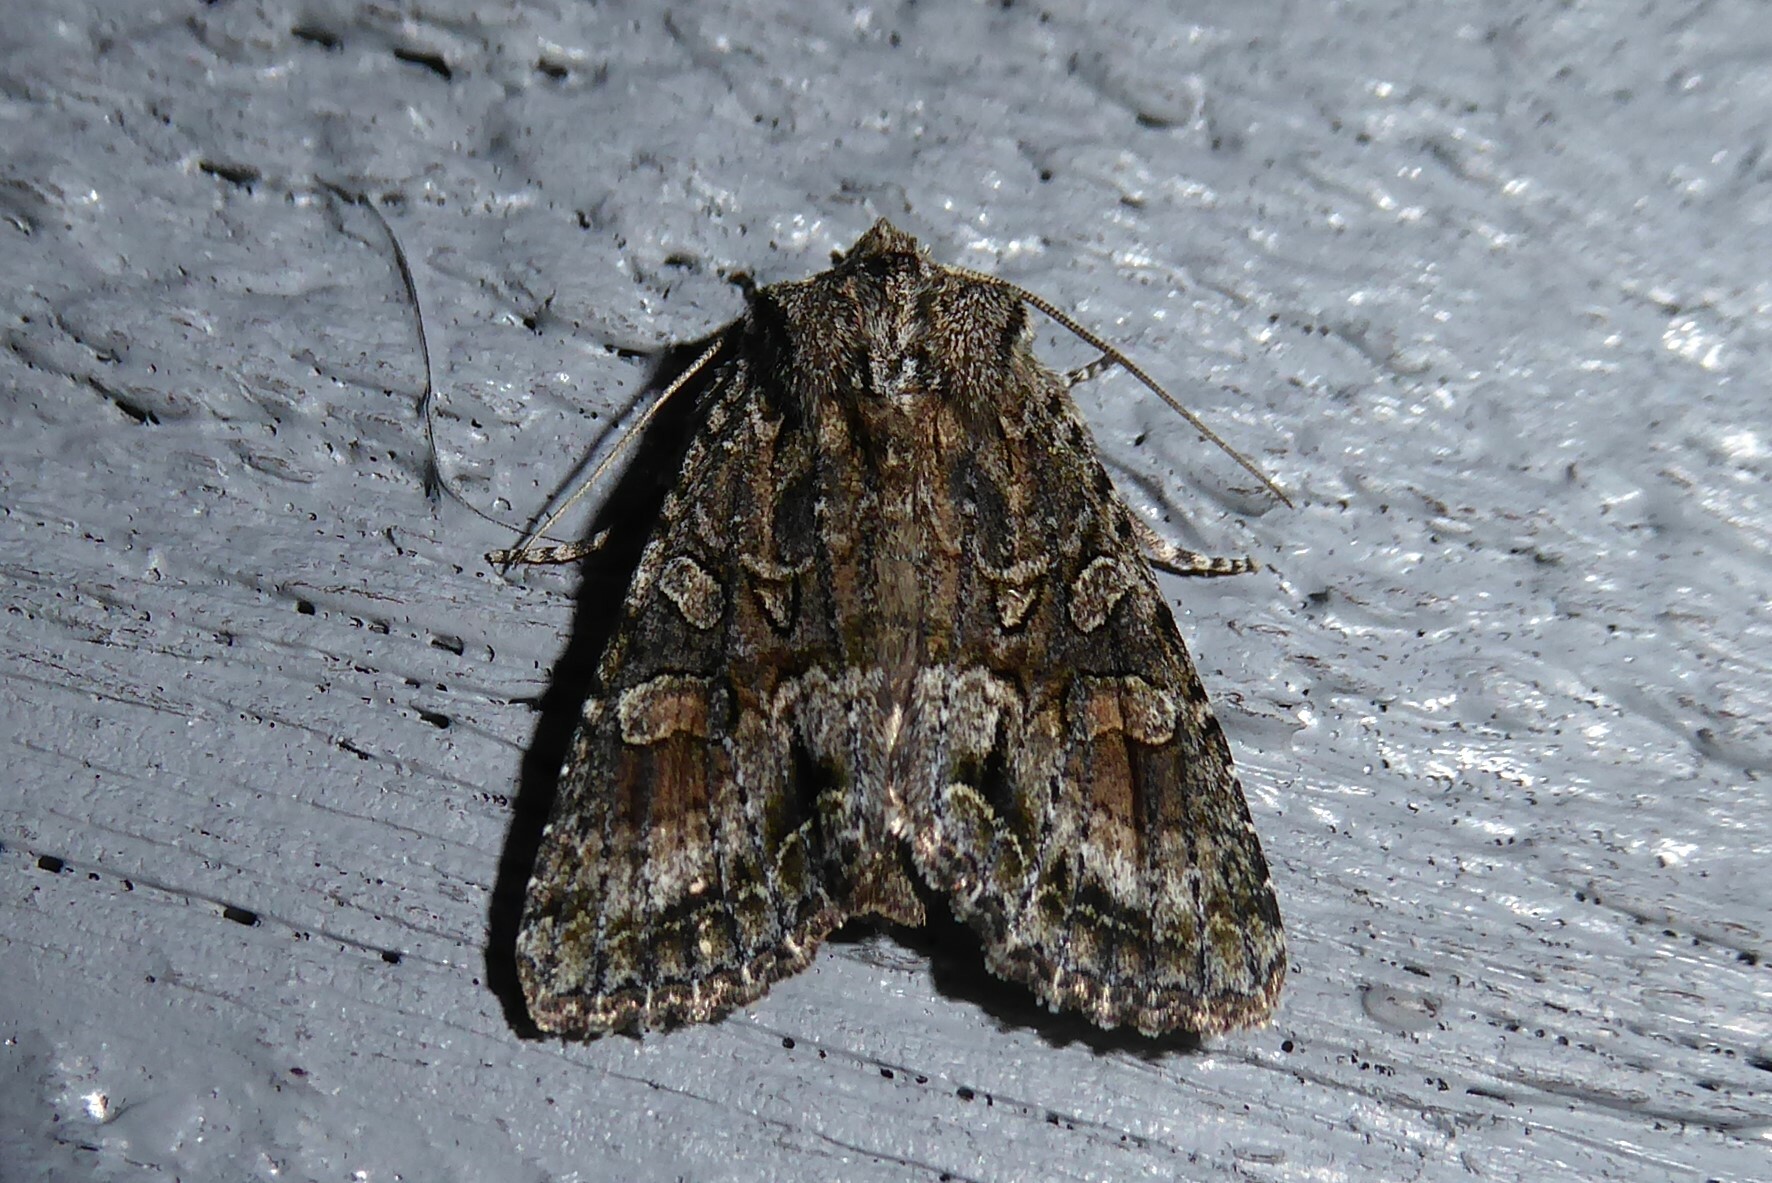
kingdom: Animalia
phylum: Arthropoda
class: Insecta
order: Lepidoptera
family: Noctuidae
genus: Ichneutica
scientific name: Ichneutica mutans
